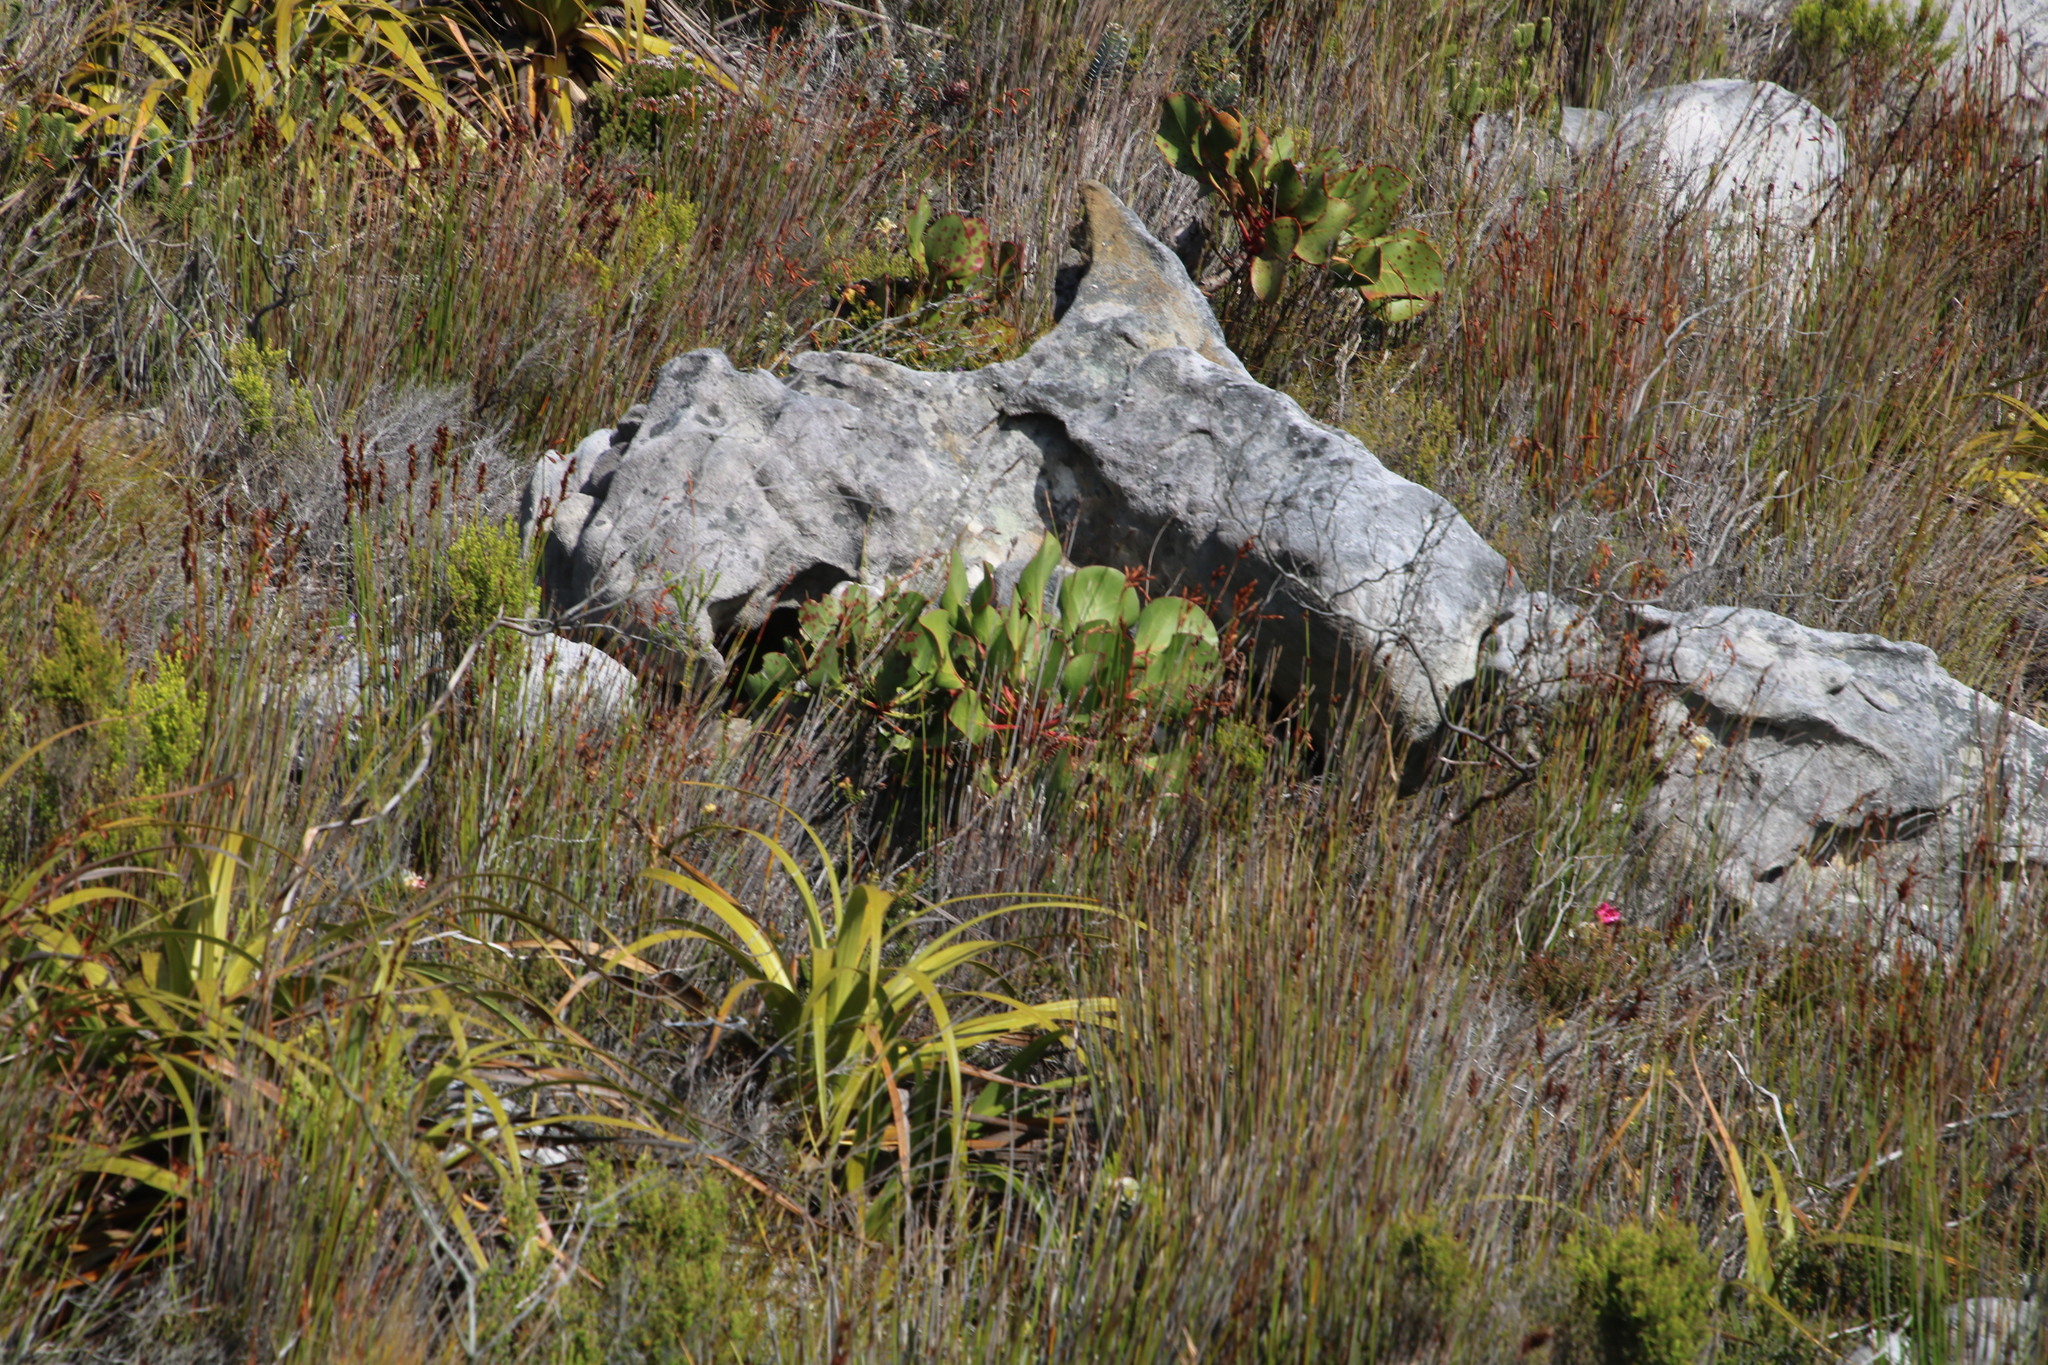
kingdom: Plantae
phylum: Tracheophyta
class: Magnoliopsida
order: Proteales
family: Proteaceae
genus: Protea
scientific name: Protea cynaroides
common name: King protea
